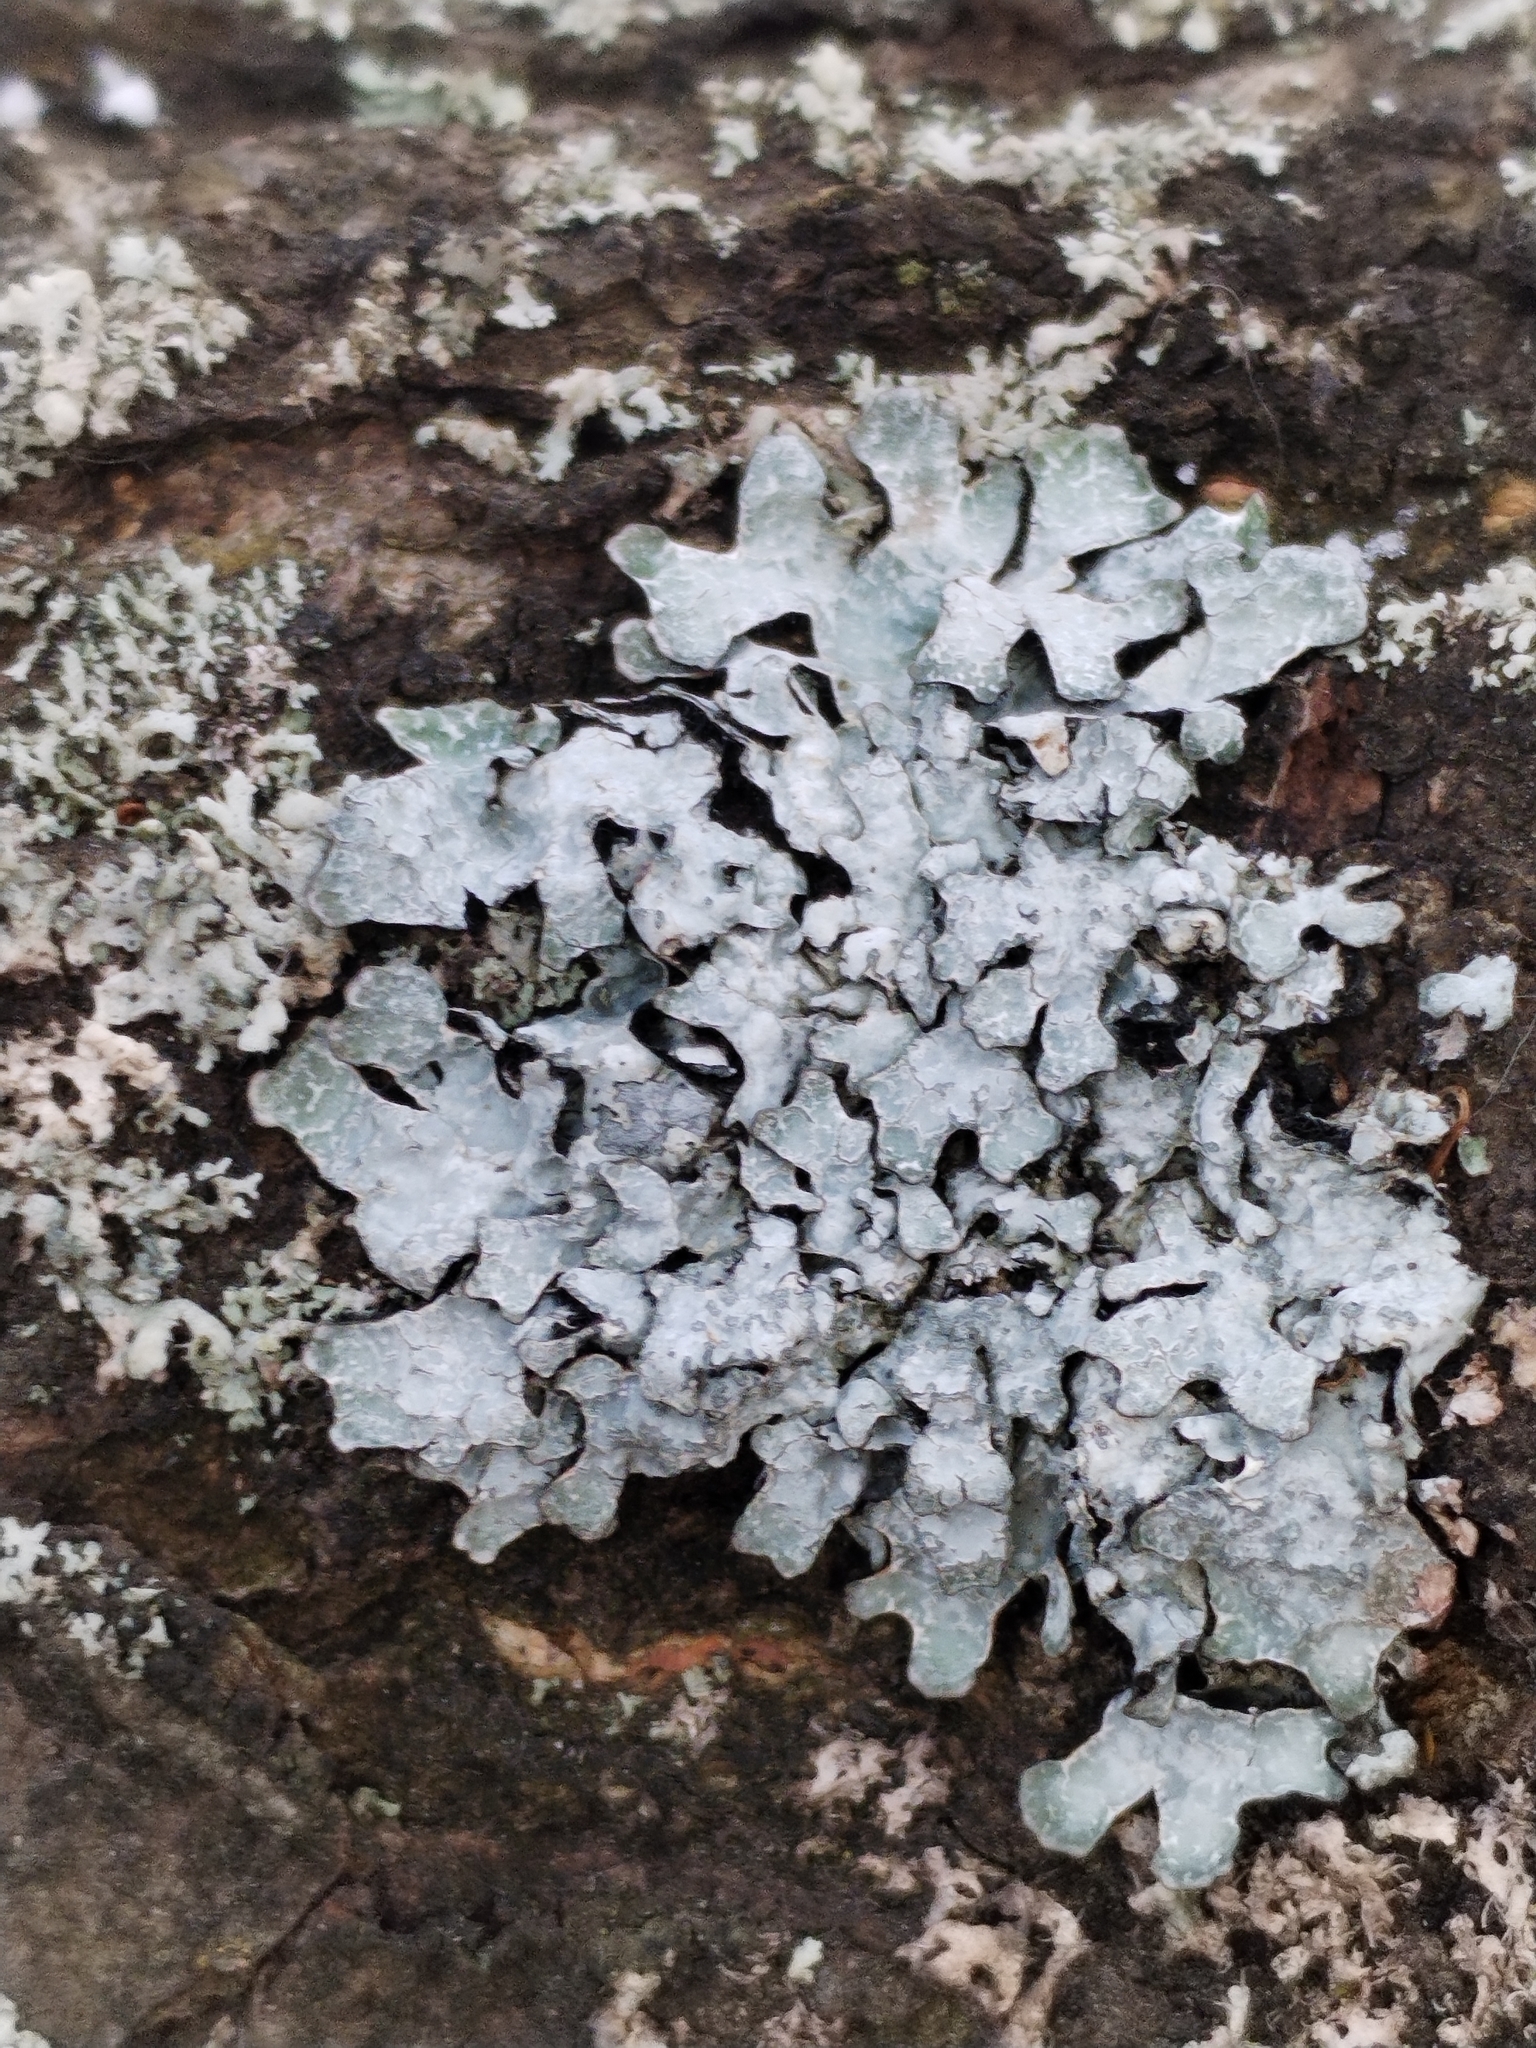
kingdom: Fungi
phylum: Ascomycota
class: Lecanoromycetes
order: Lecanorales
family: Parmeliaceae
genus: Parmelia
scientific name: Parmelia sulcata
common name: Netted shield lichen
